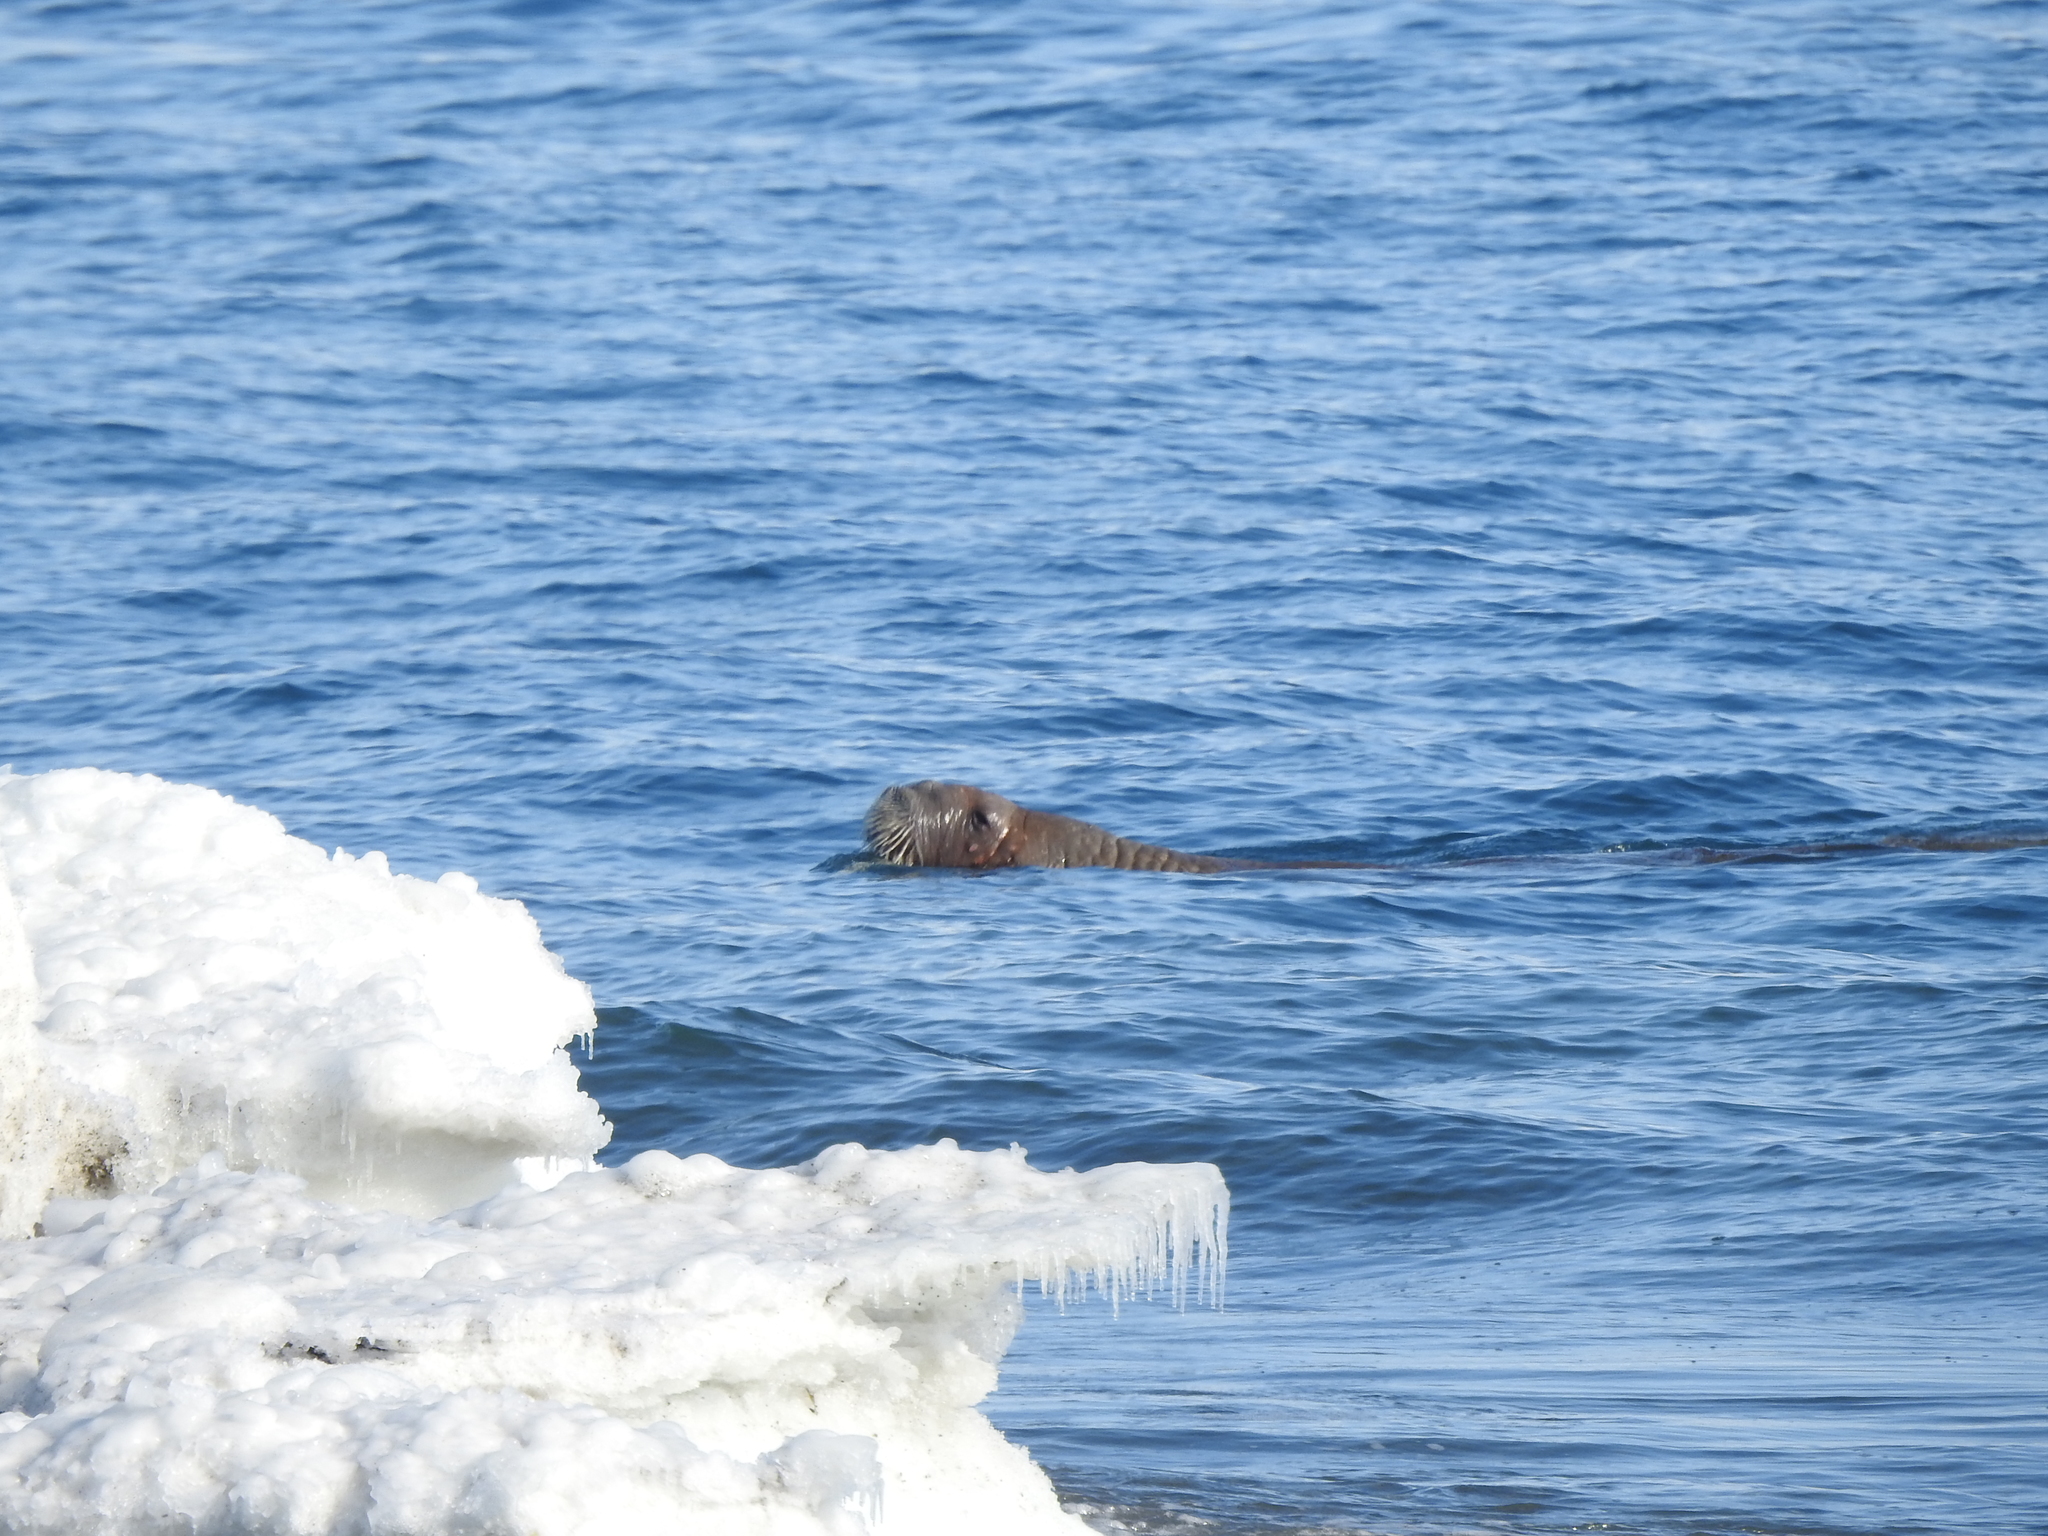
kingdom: Animalia
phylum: Chordata
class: Mammalia
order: Carnivora
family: Odobenidae
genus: Odobenus
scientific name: Odobenus rosmarus
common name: Walrus
